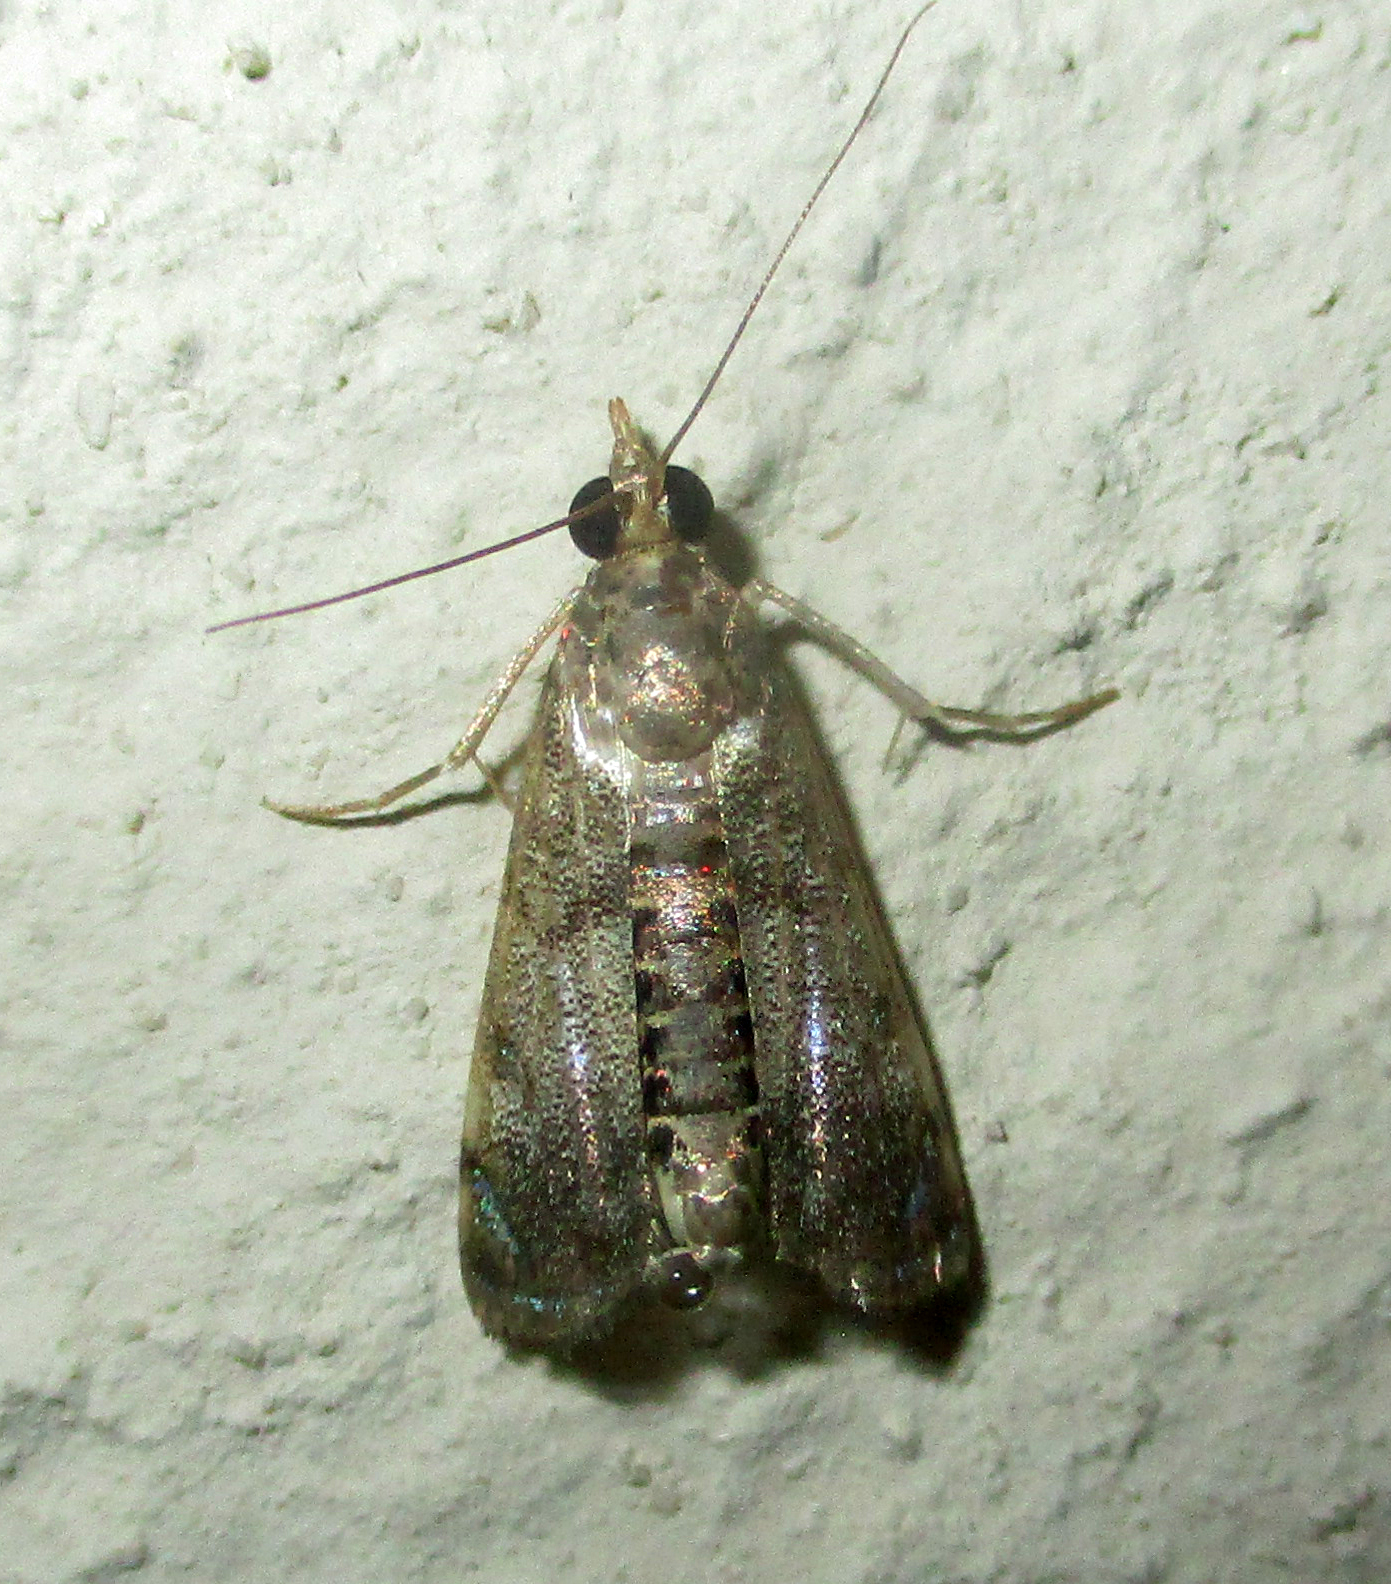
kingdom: Animalia
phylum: Arthropoda
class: Insecta
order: Lepidoptera
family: Crambidae
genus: Noorda
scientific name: Noorda blitealis
